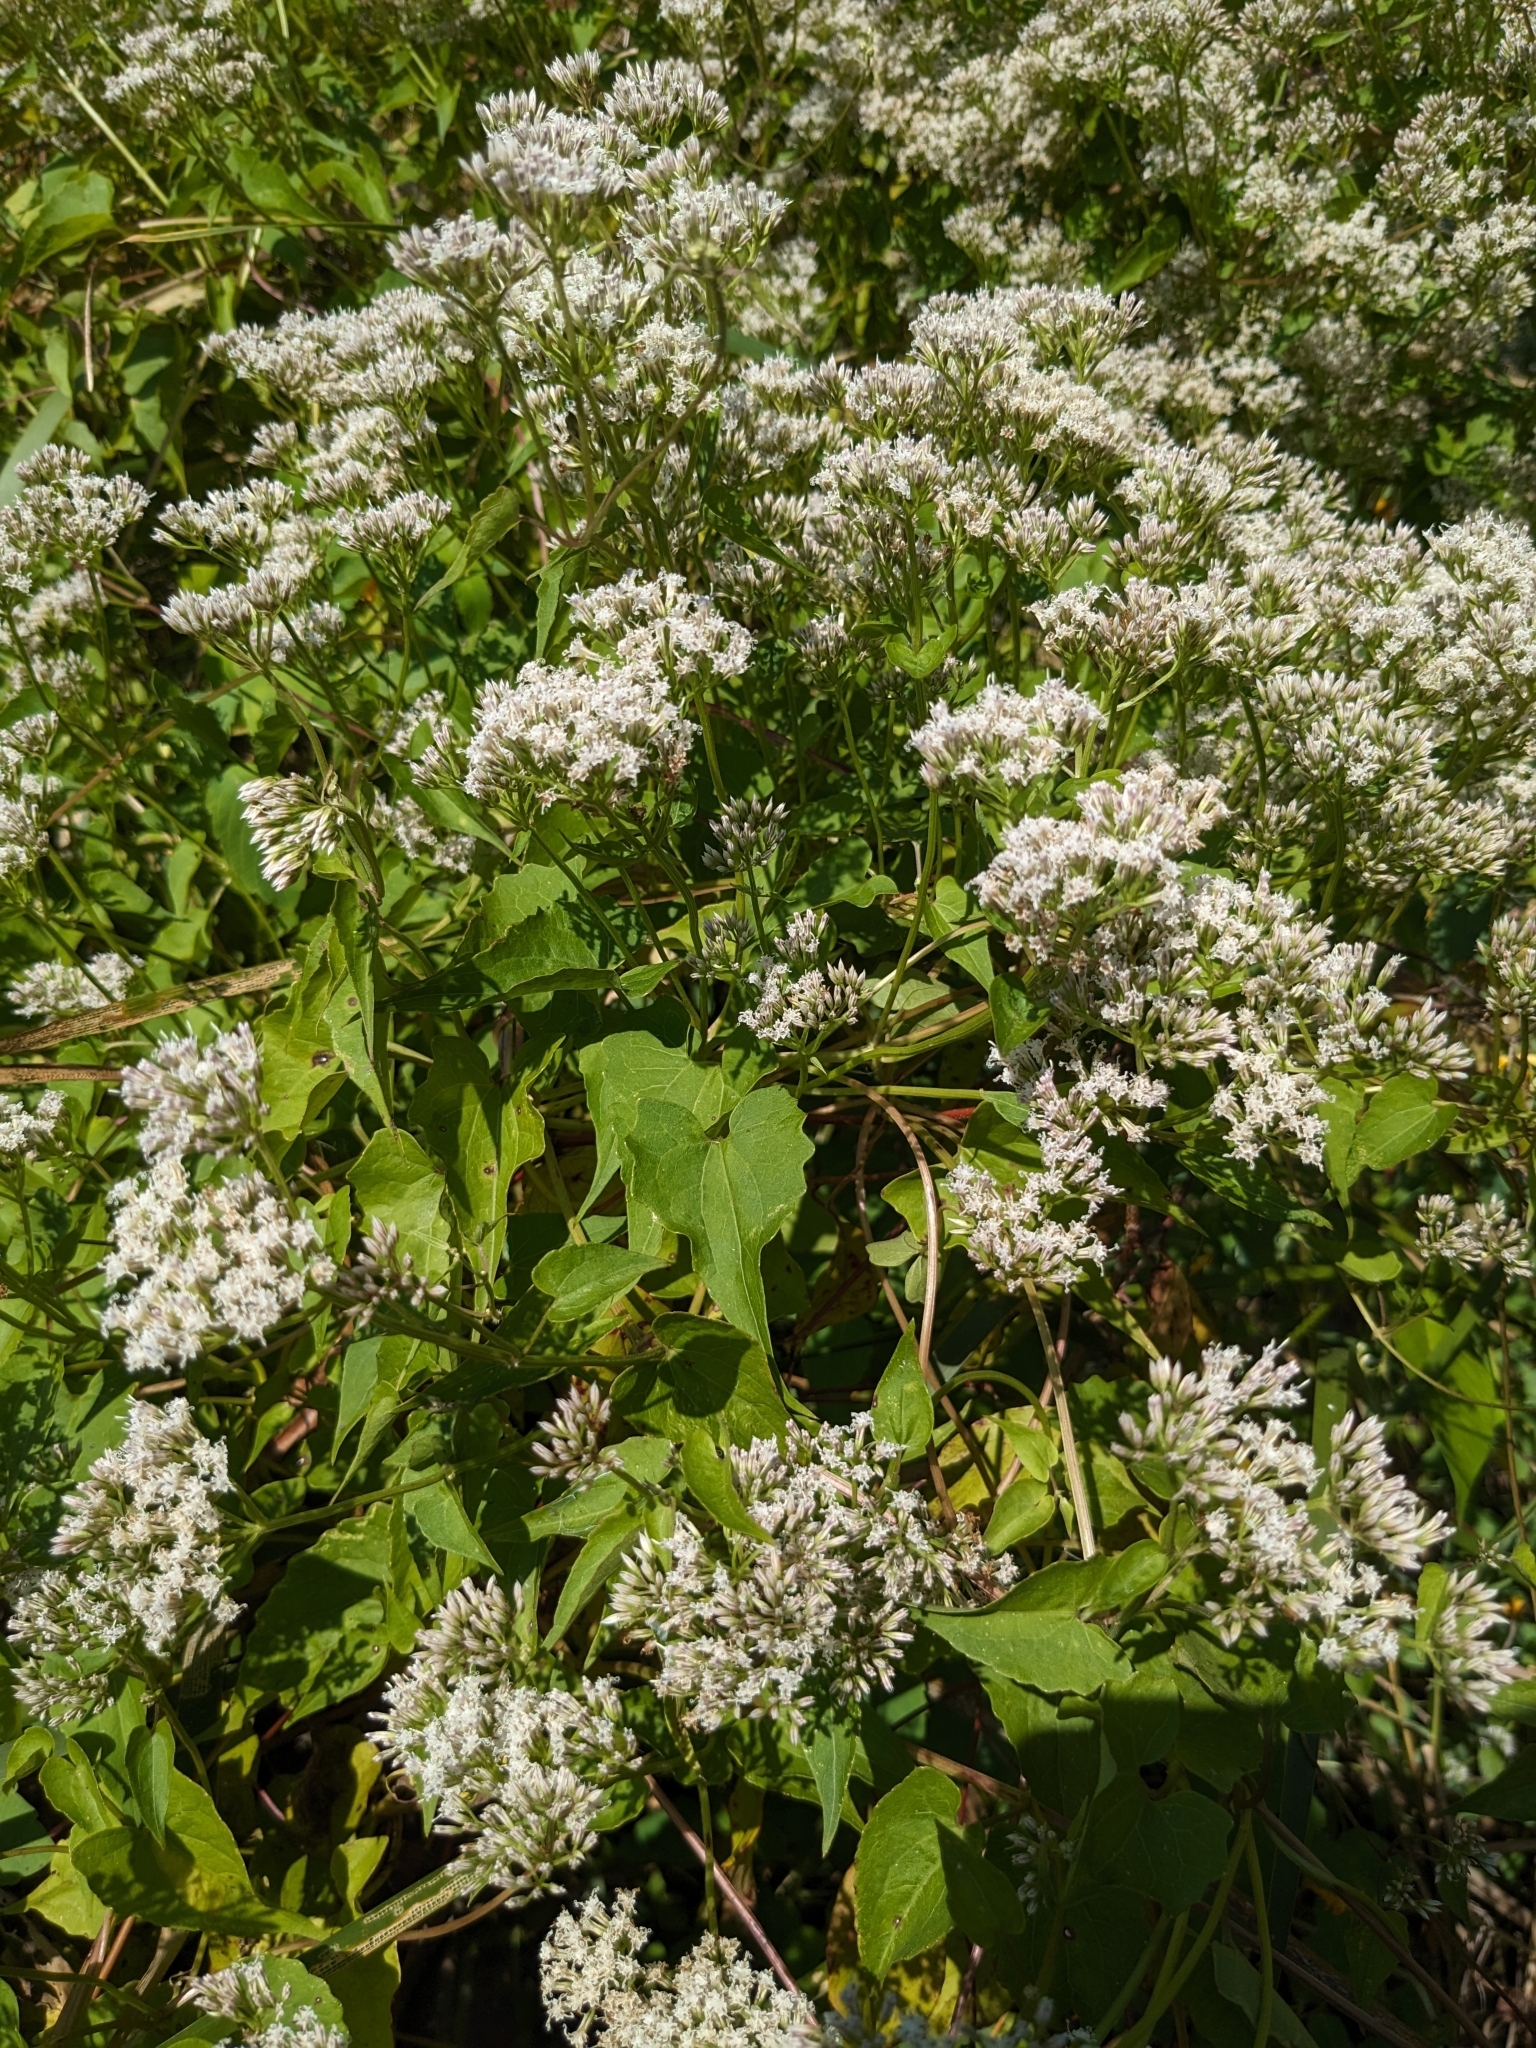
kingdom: Plantae
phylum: Tracheophyta
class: Magnoliopsida
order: Asterales
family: Asteraceae
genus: Mikania
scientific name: Mikania scandens
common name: Climbing hempvine
